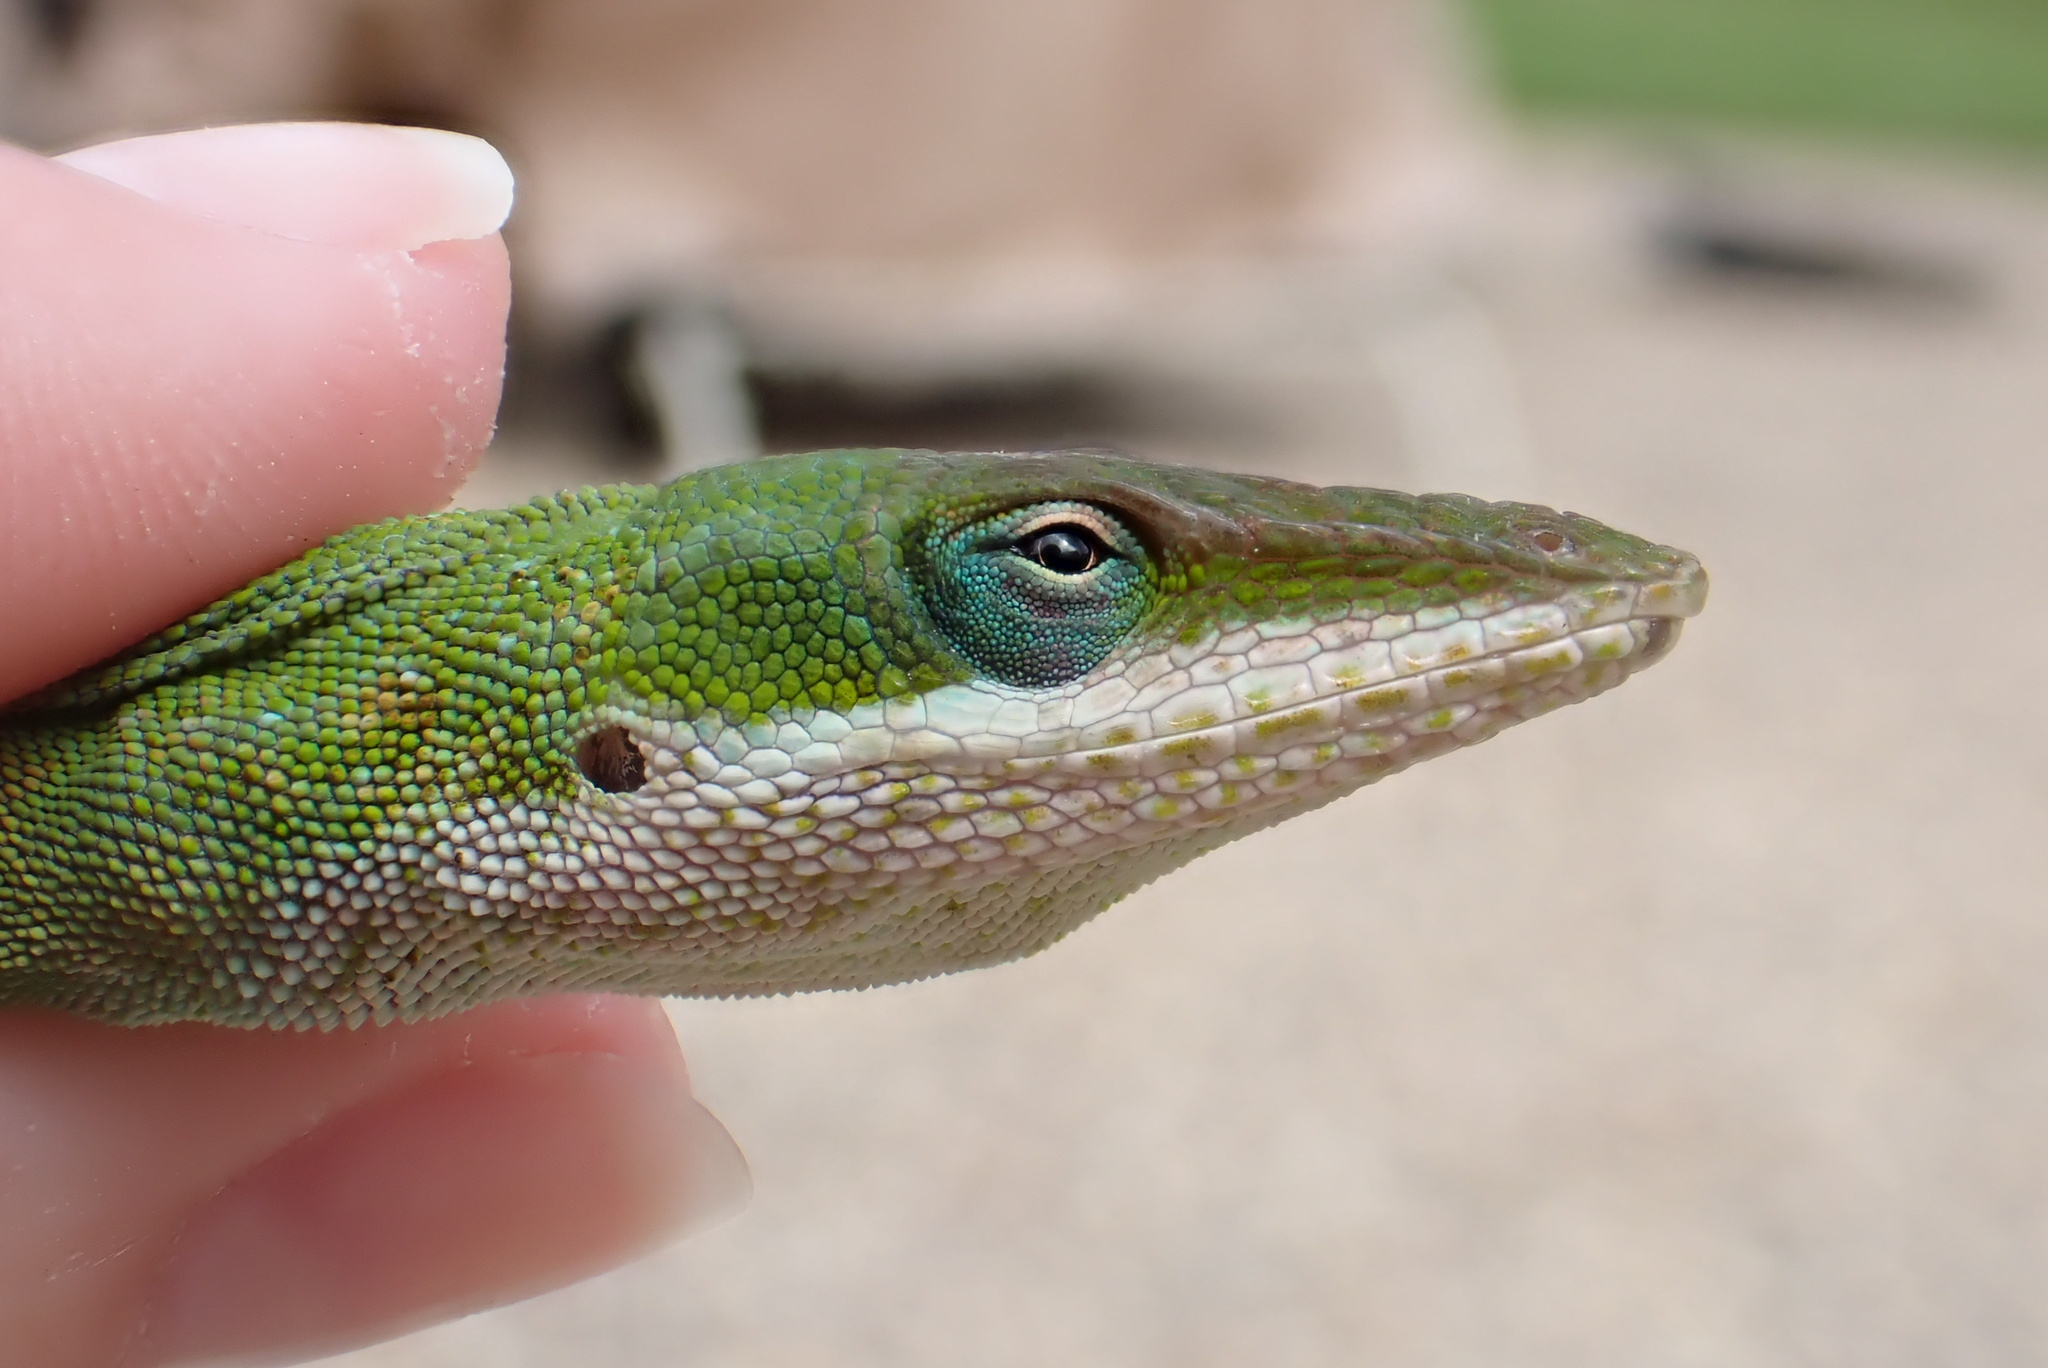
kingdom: Animalia
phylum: Chordata
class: Squamata
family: Dactyloidae
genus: Anolis
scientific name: Anolis carolinensis
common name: Green anole
